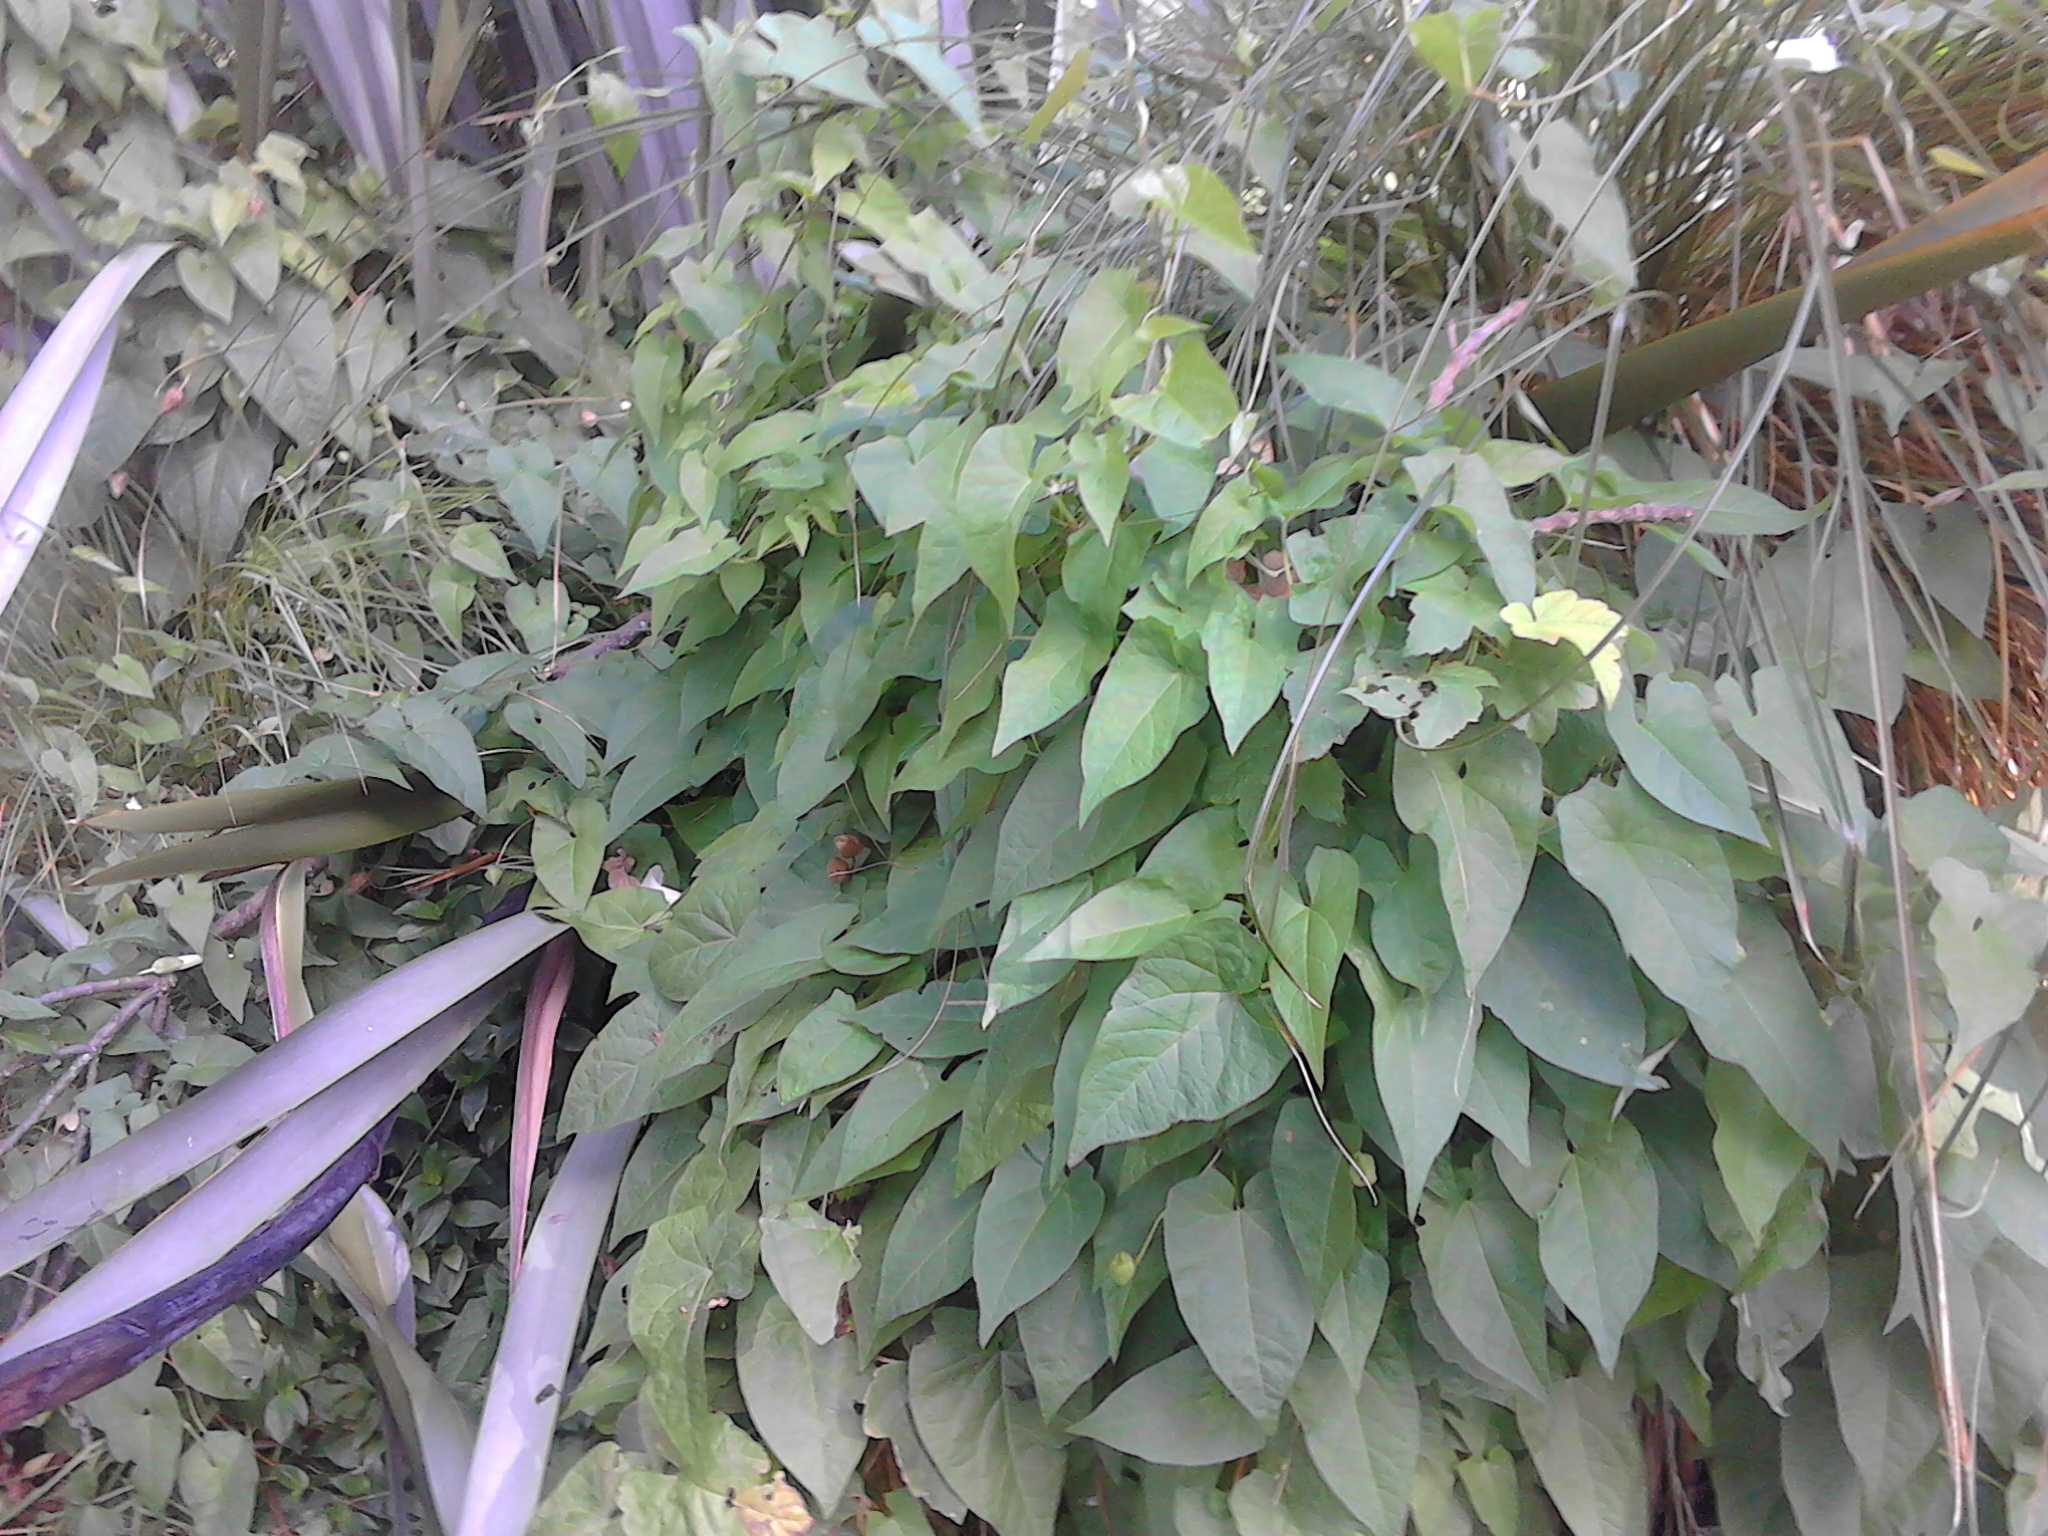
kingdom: Plantae
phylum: Tracheophyta
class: Magnoliopsida
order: Solanales
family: Convolvulaceae
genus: Calystegia
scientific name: Calystegia silvatica
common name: Large bindweed
